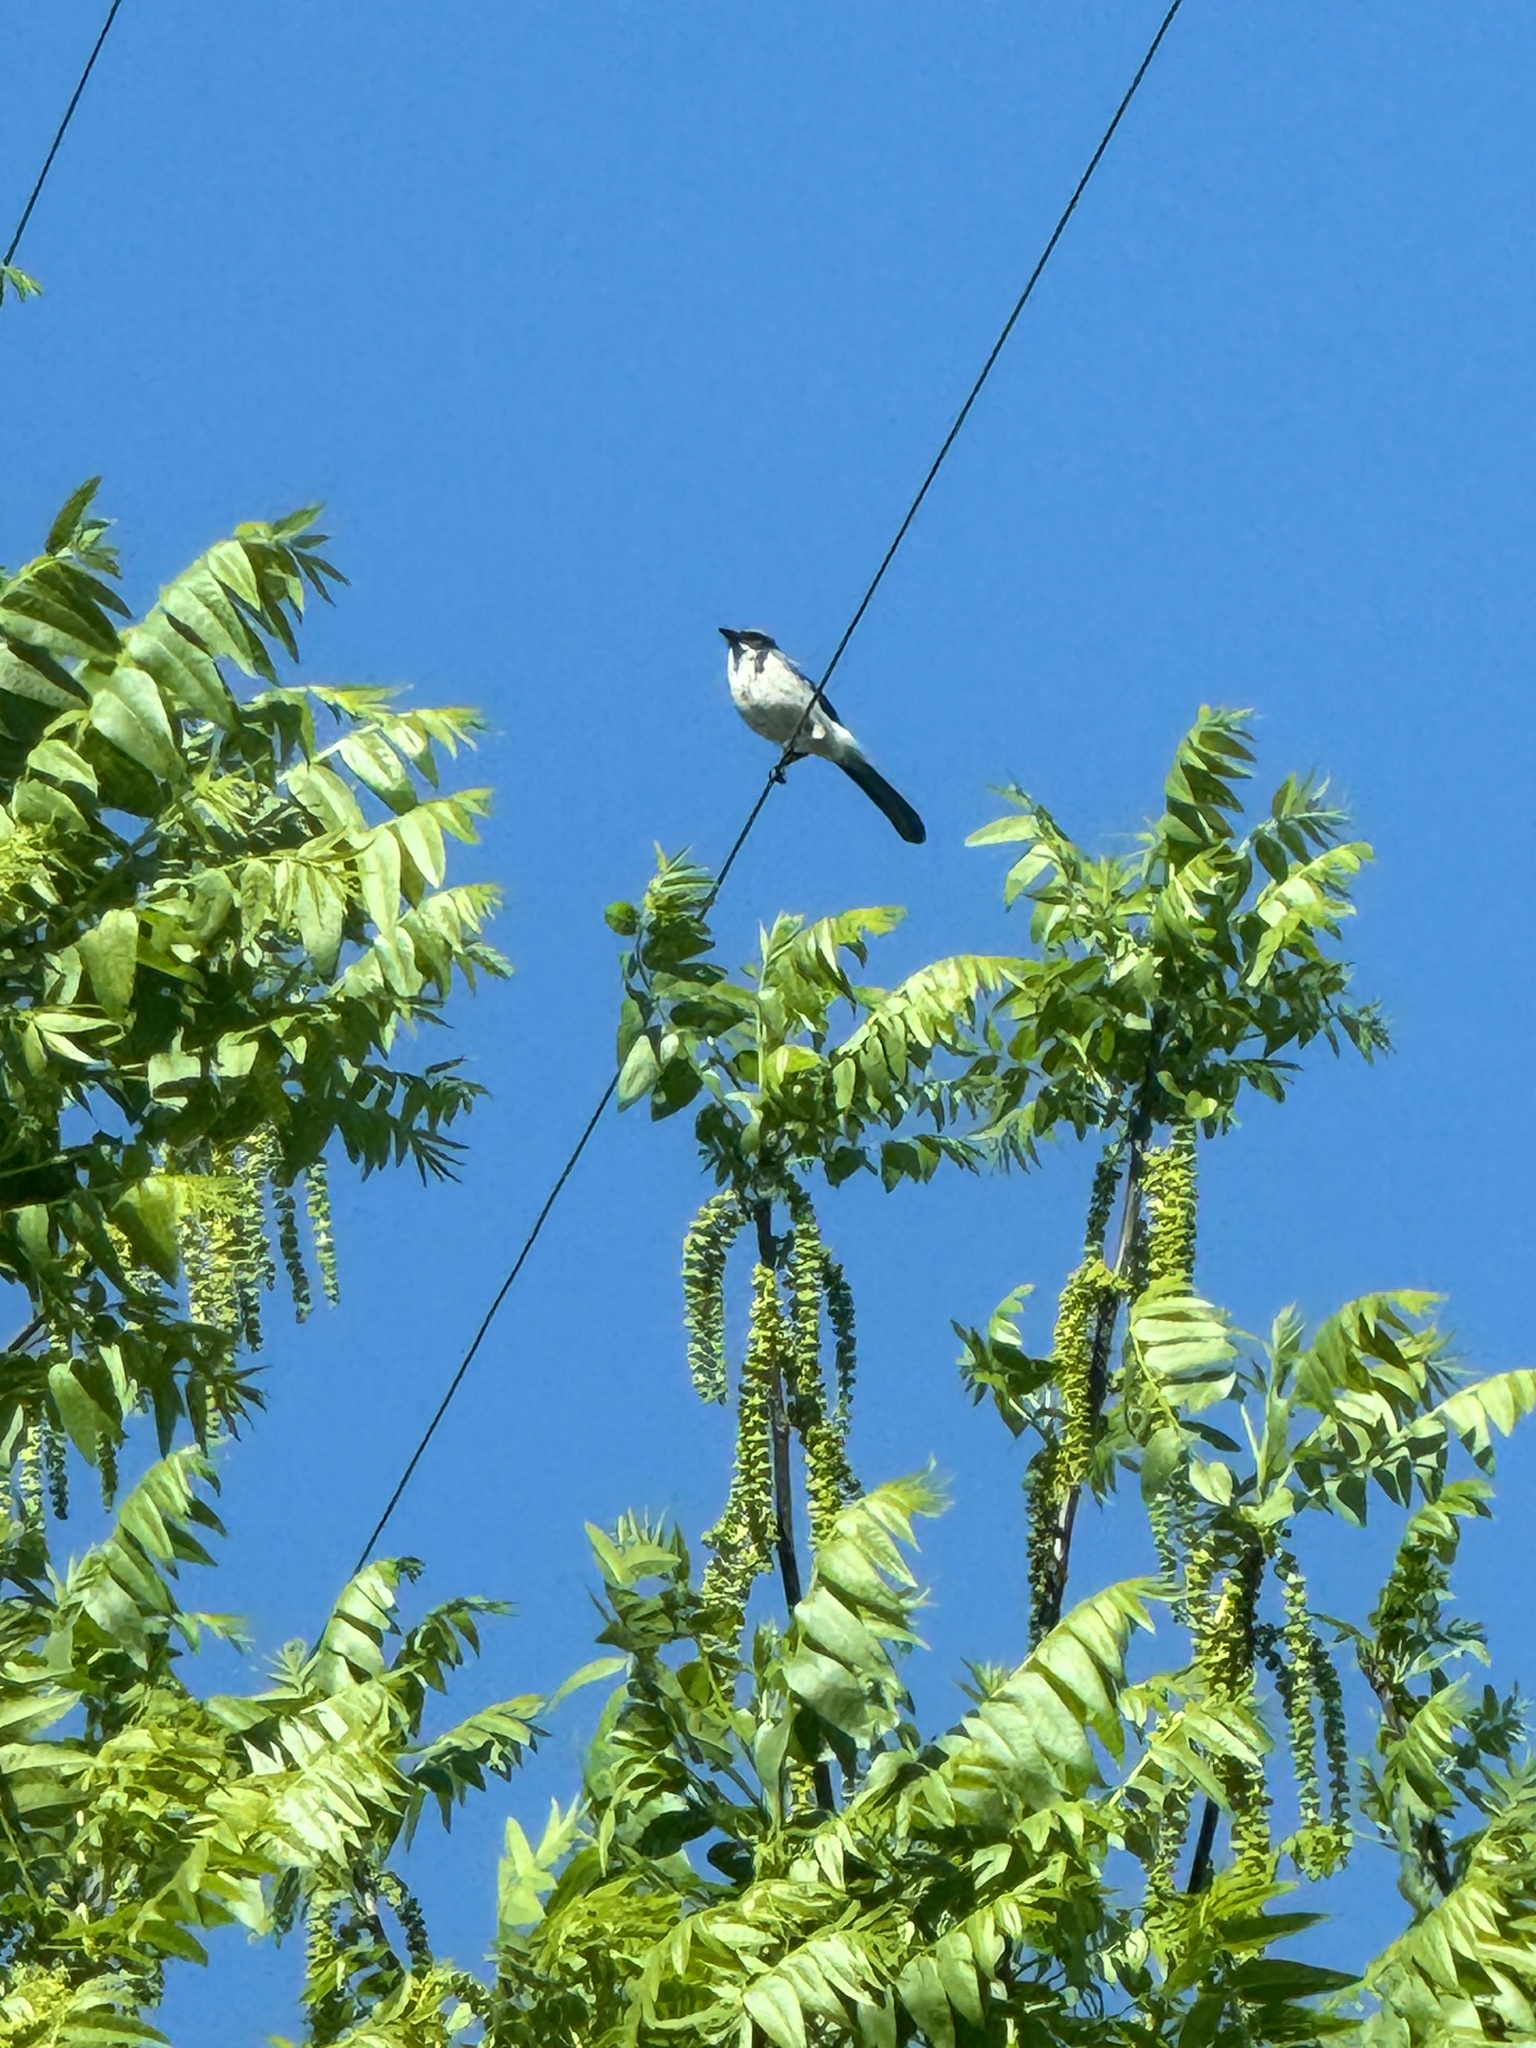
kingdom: Animalia
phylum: Chordata
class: Aves
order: Passeriformes
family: Corvidae
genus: Aphelocoma
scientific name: Aphelocoma californica
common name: California scrub-jay
